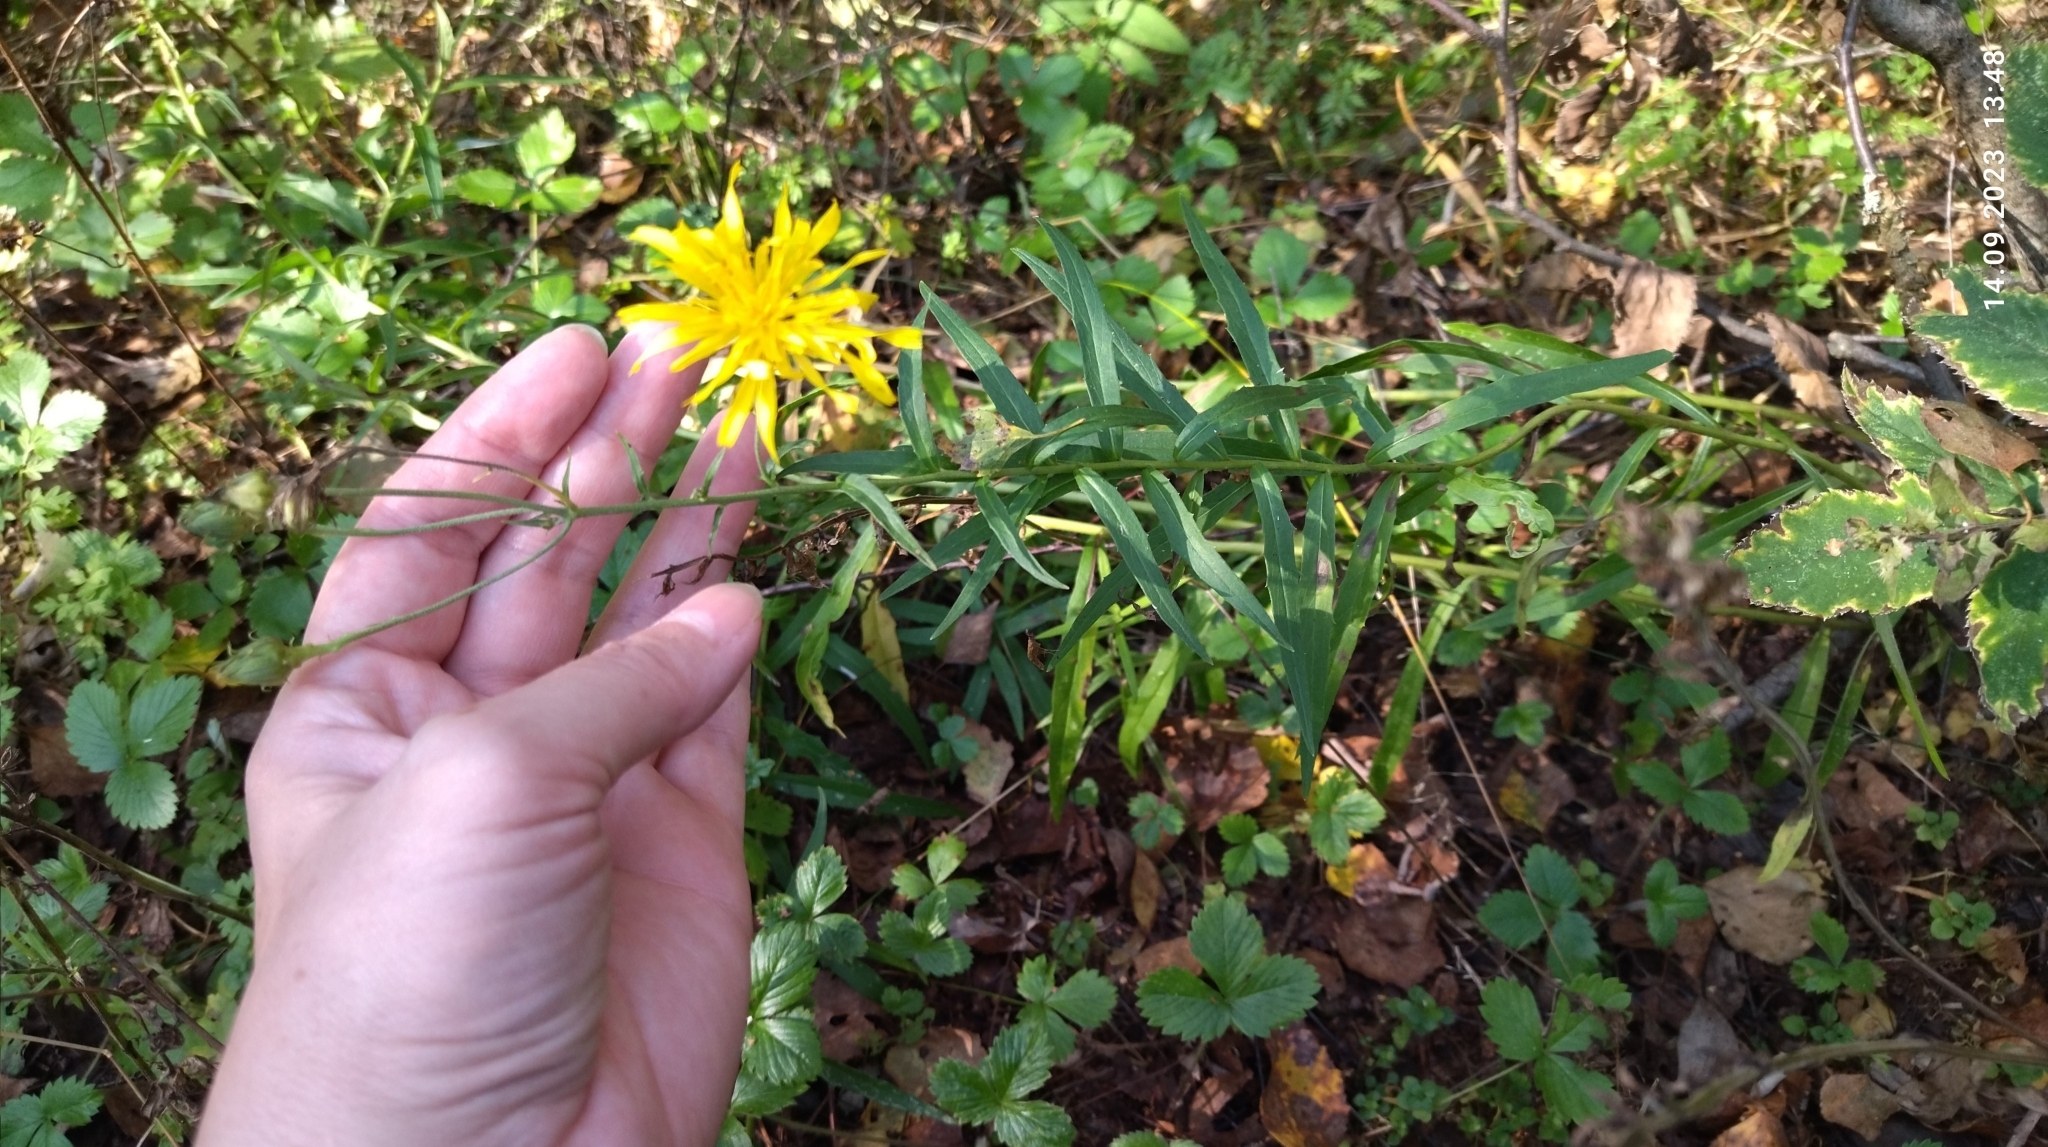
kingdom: Plantae
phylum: Tracheophyta
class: Magnoliopsida
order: Asterales
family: Asteraceae
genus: Hieracium
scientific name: Hieracium umbellatum
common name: Northern hawkweed
